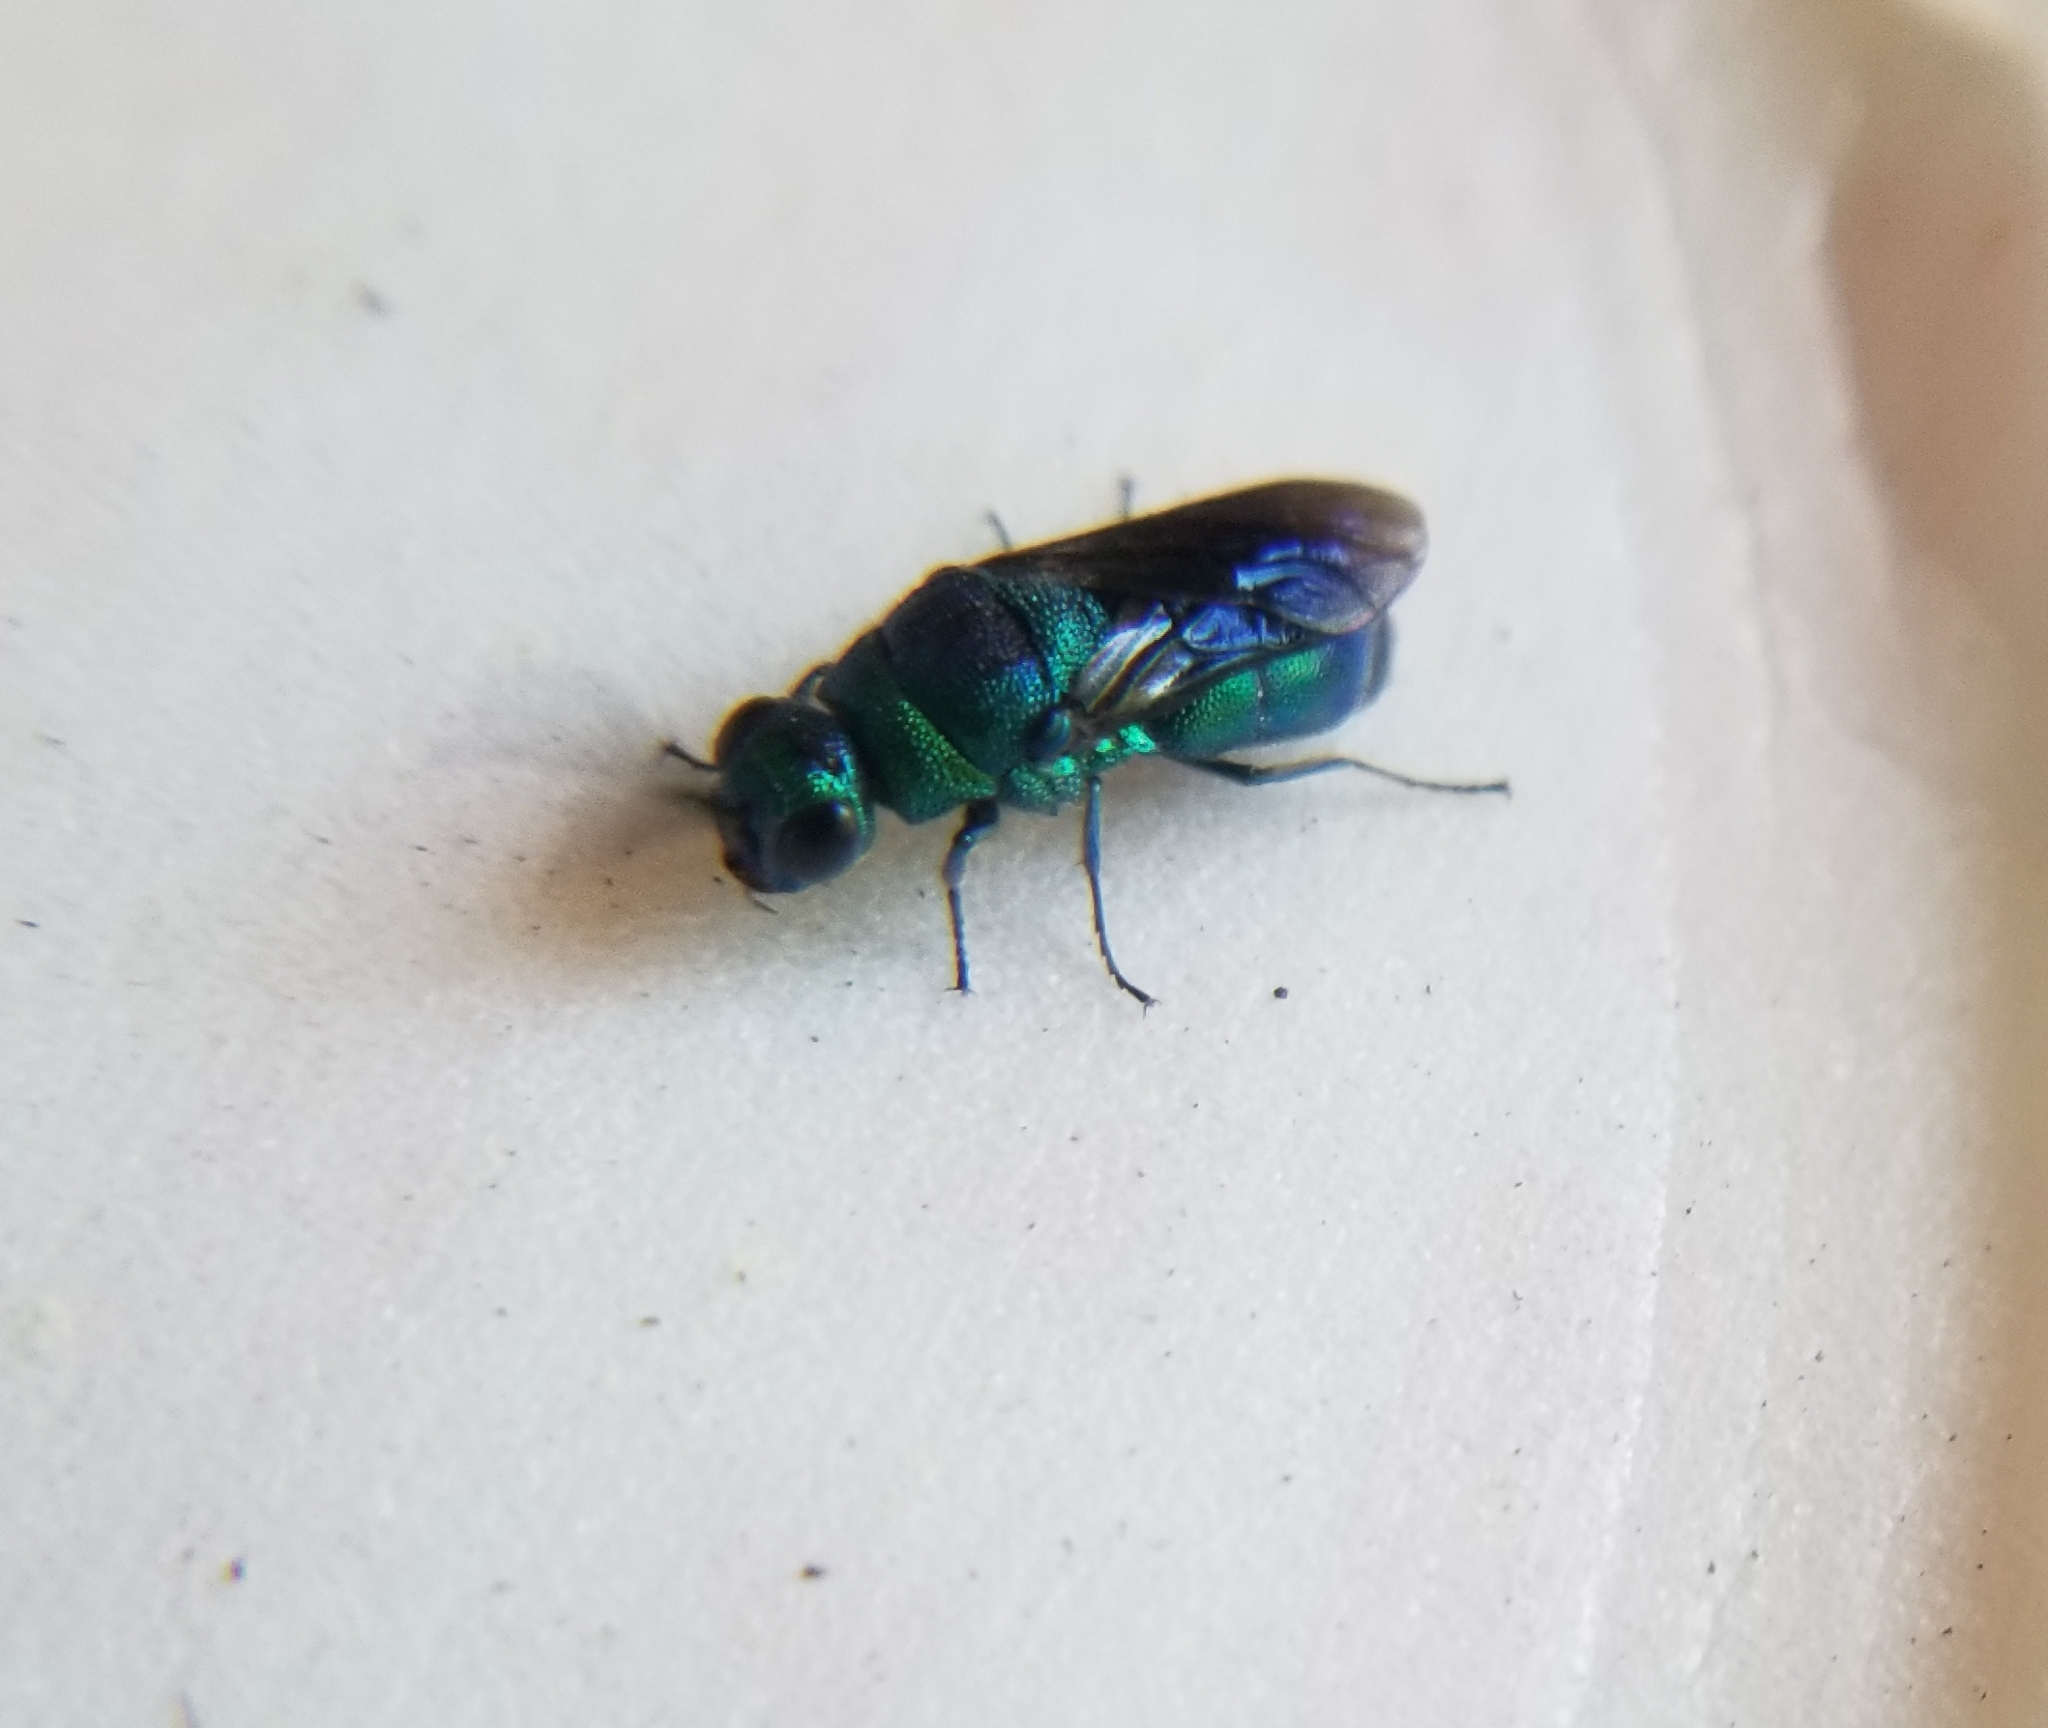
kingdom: Animalia
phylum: Arthropoda
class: Insecta
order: Hymenoptera
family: Chrysididae
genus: Chrysis
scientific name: Chrysis angolensis
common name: Cuckoo wasp
